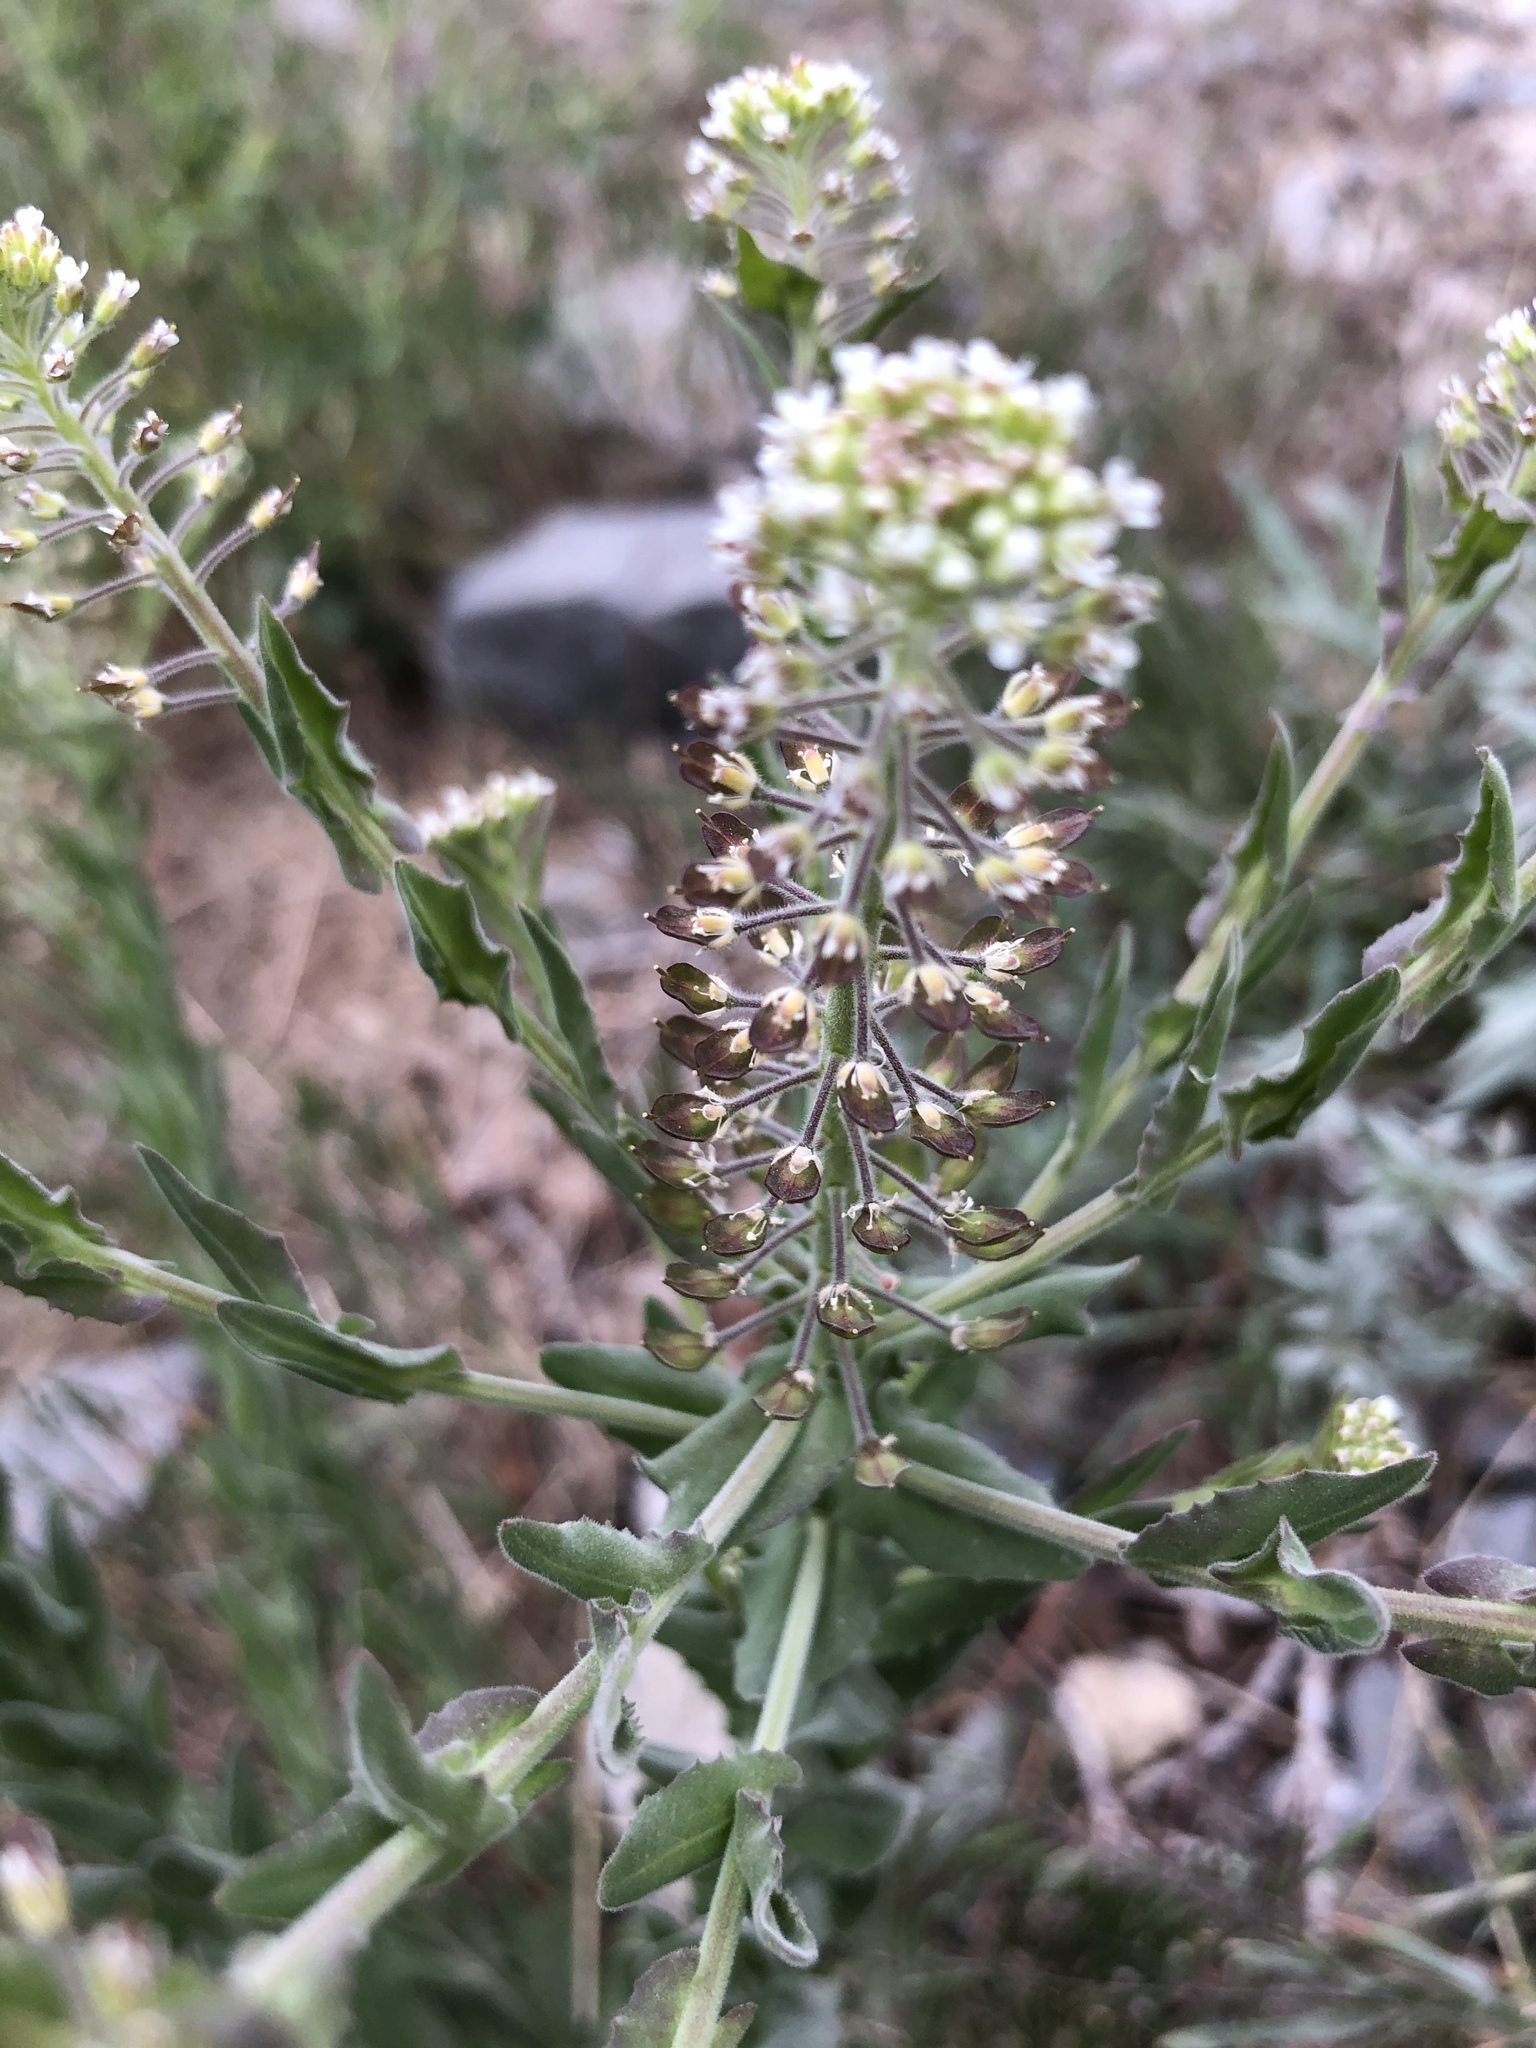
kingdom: Plantae
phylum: Tracheophyta
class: Magnoliopsida
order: Brassicales
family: Brassicaceae
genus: Lepidium
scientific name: Lepidium campestre
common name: Field pepperwort
